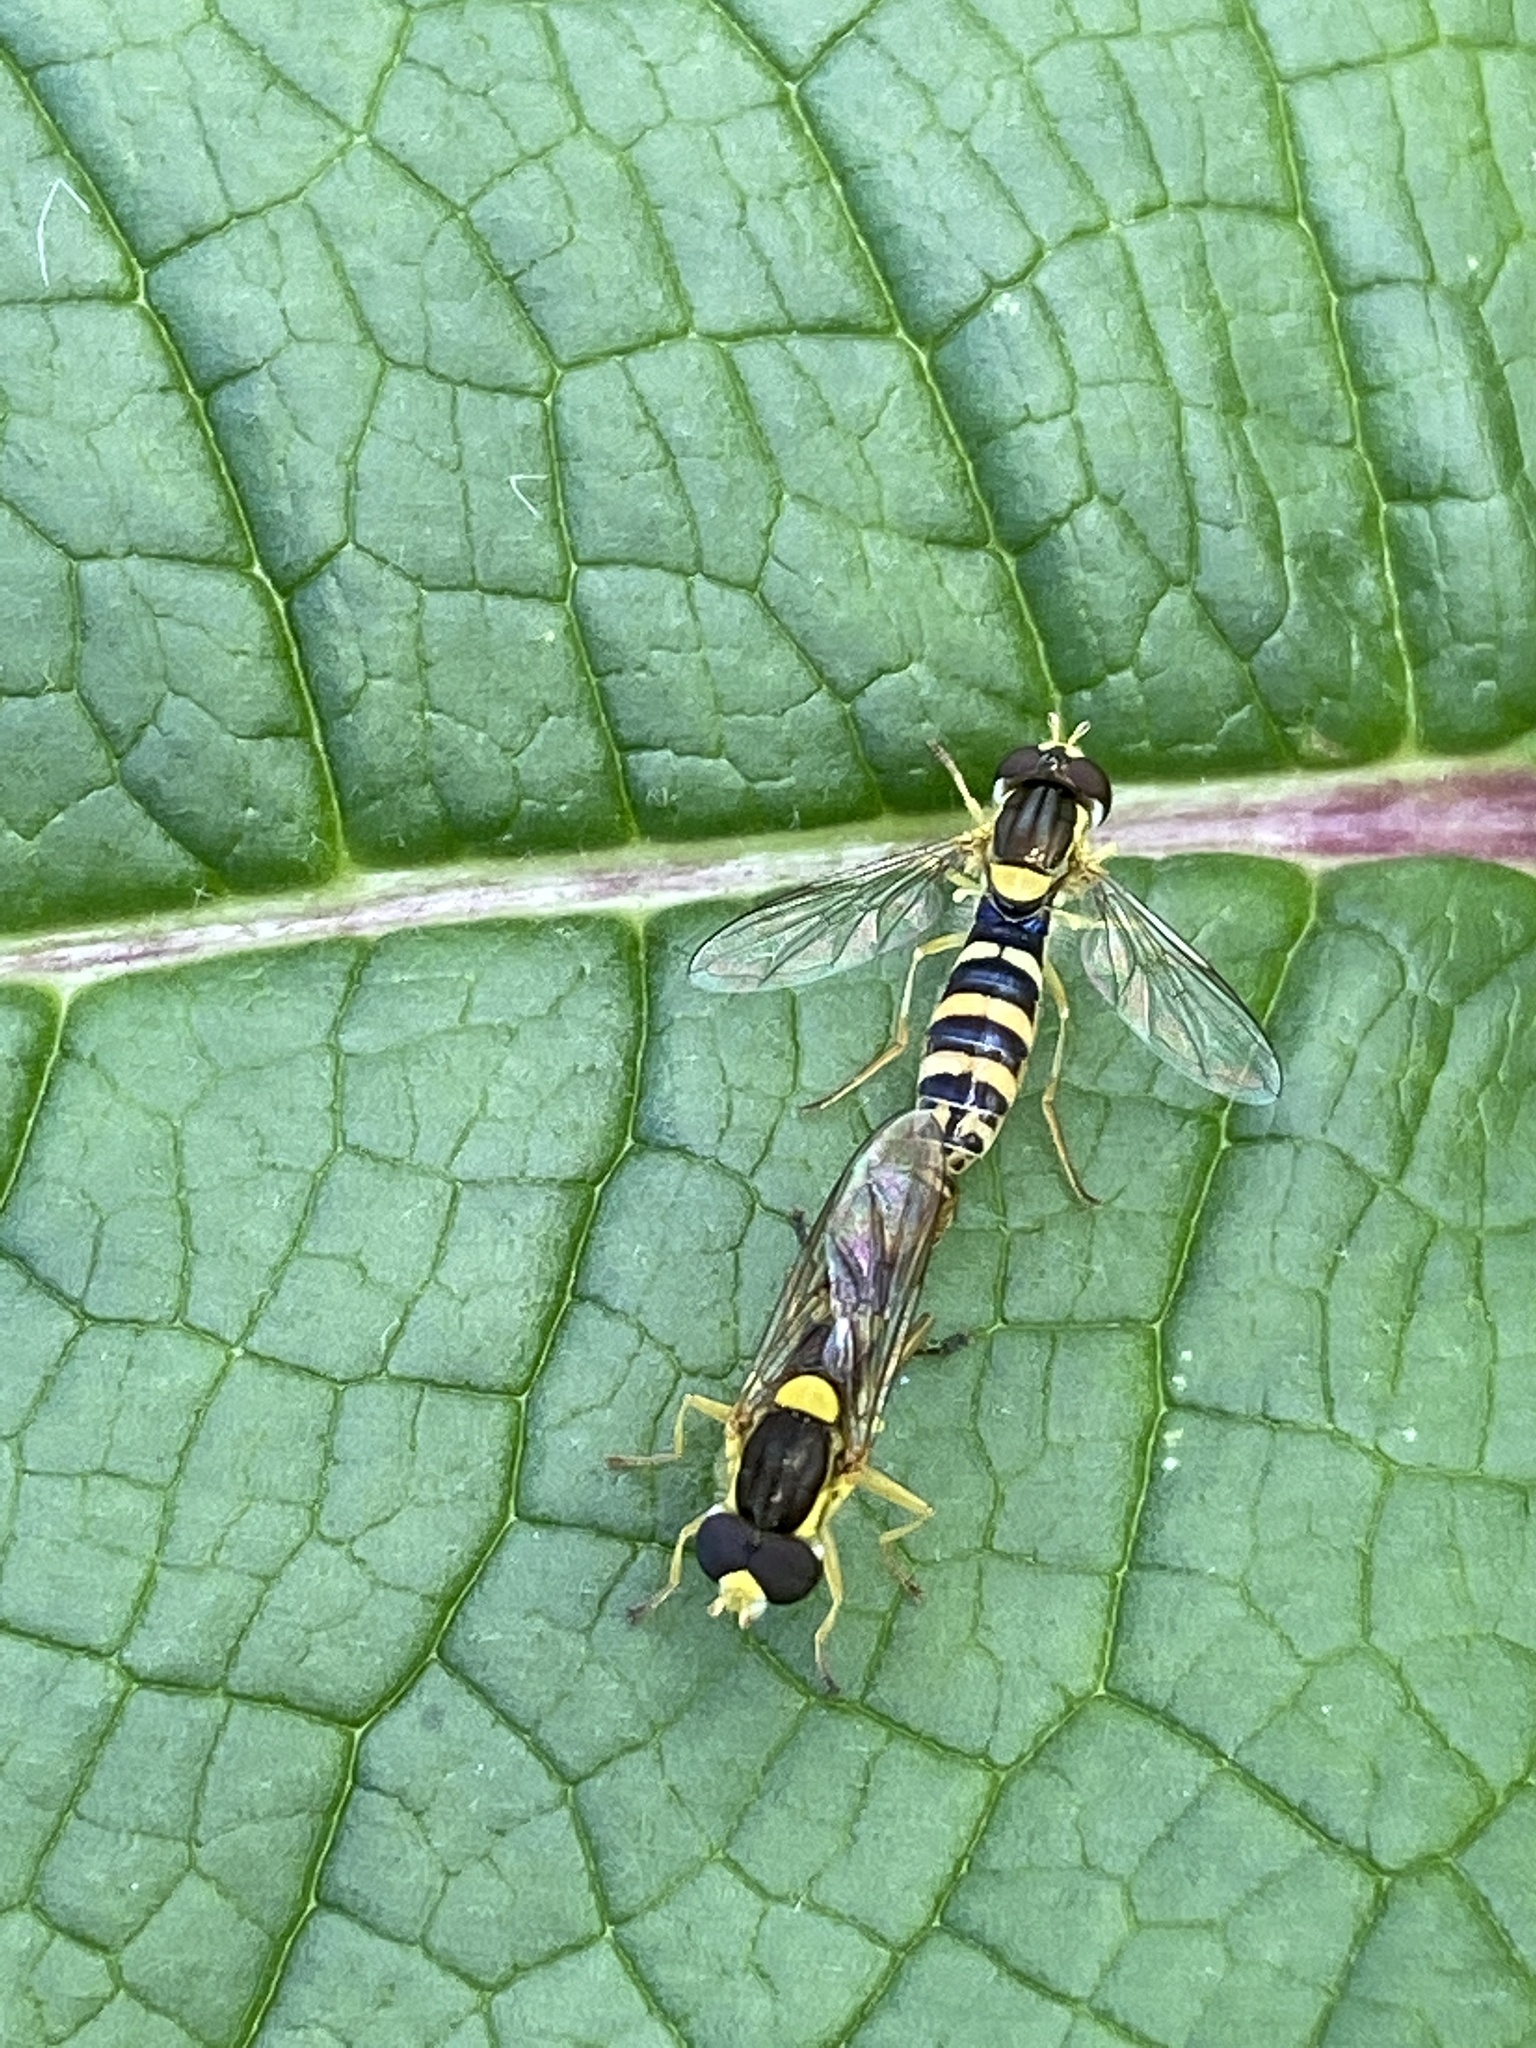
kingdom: Animalia
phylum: Arthropoda
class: Insecta
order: Diptera
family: Syrphidae
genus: Sphaerophoria
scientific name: Sphaerophoria scripta
